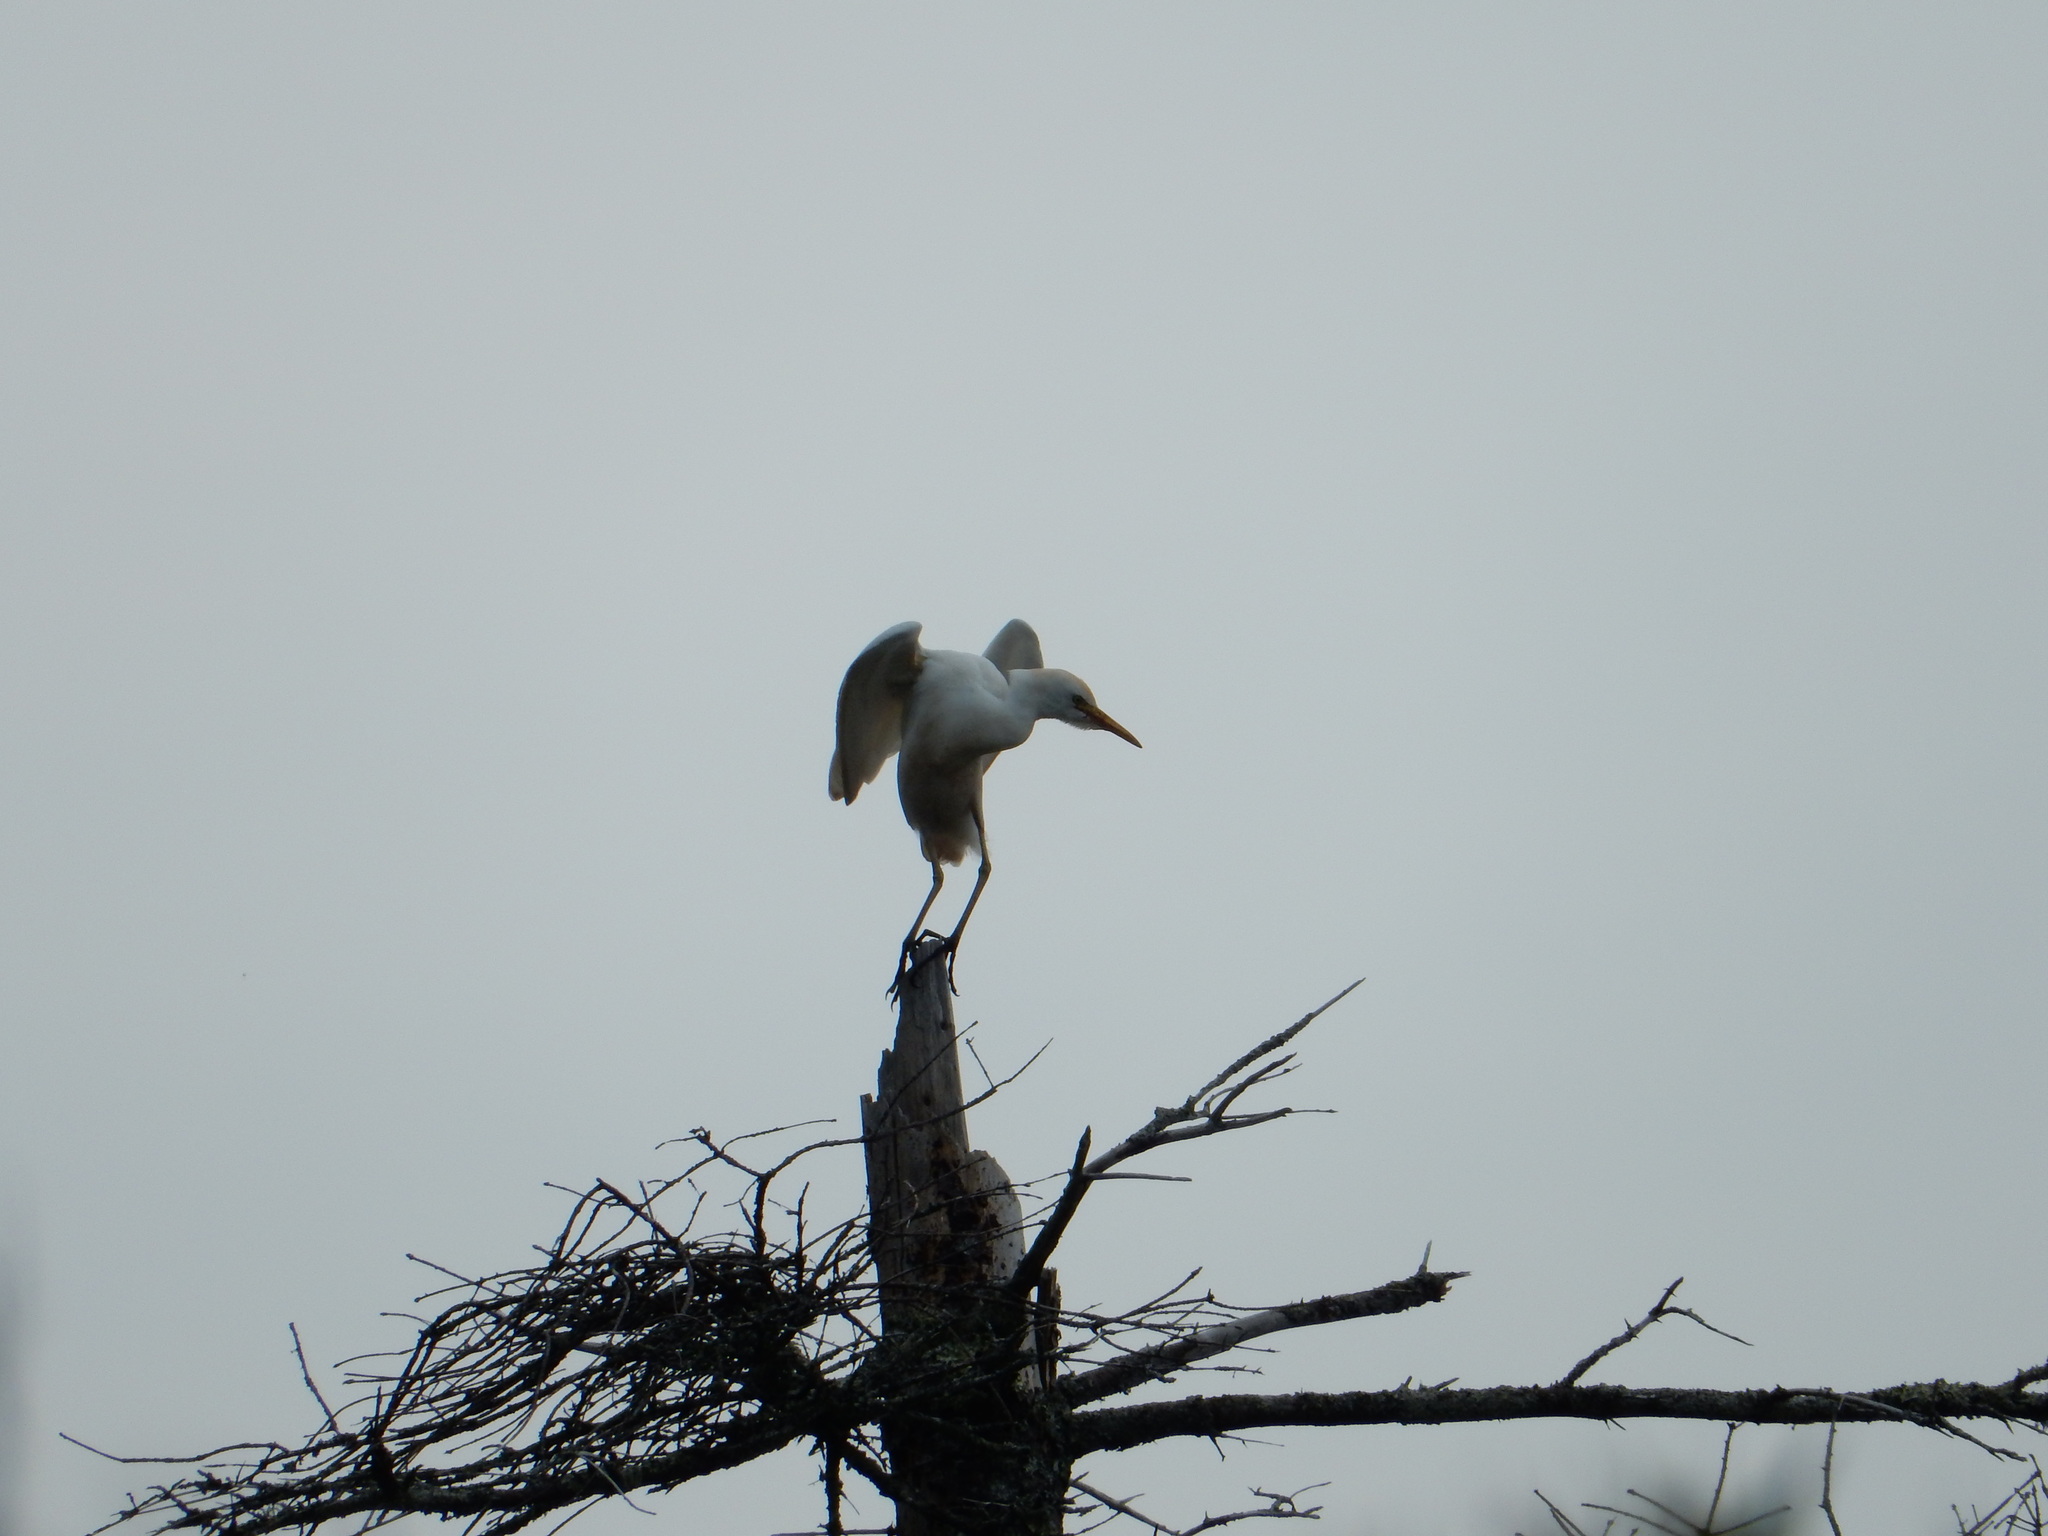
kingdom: Animalia
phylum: Chordata
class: Aves
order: Pelecaniformes
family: Ardeidae
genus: Bubulcus
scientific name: Bubulcus ibis
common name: Cattle egret
